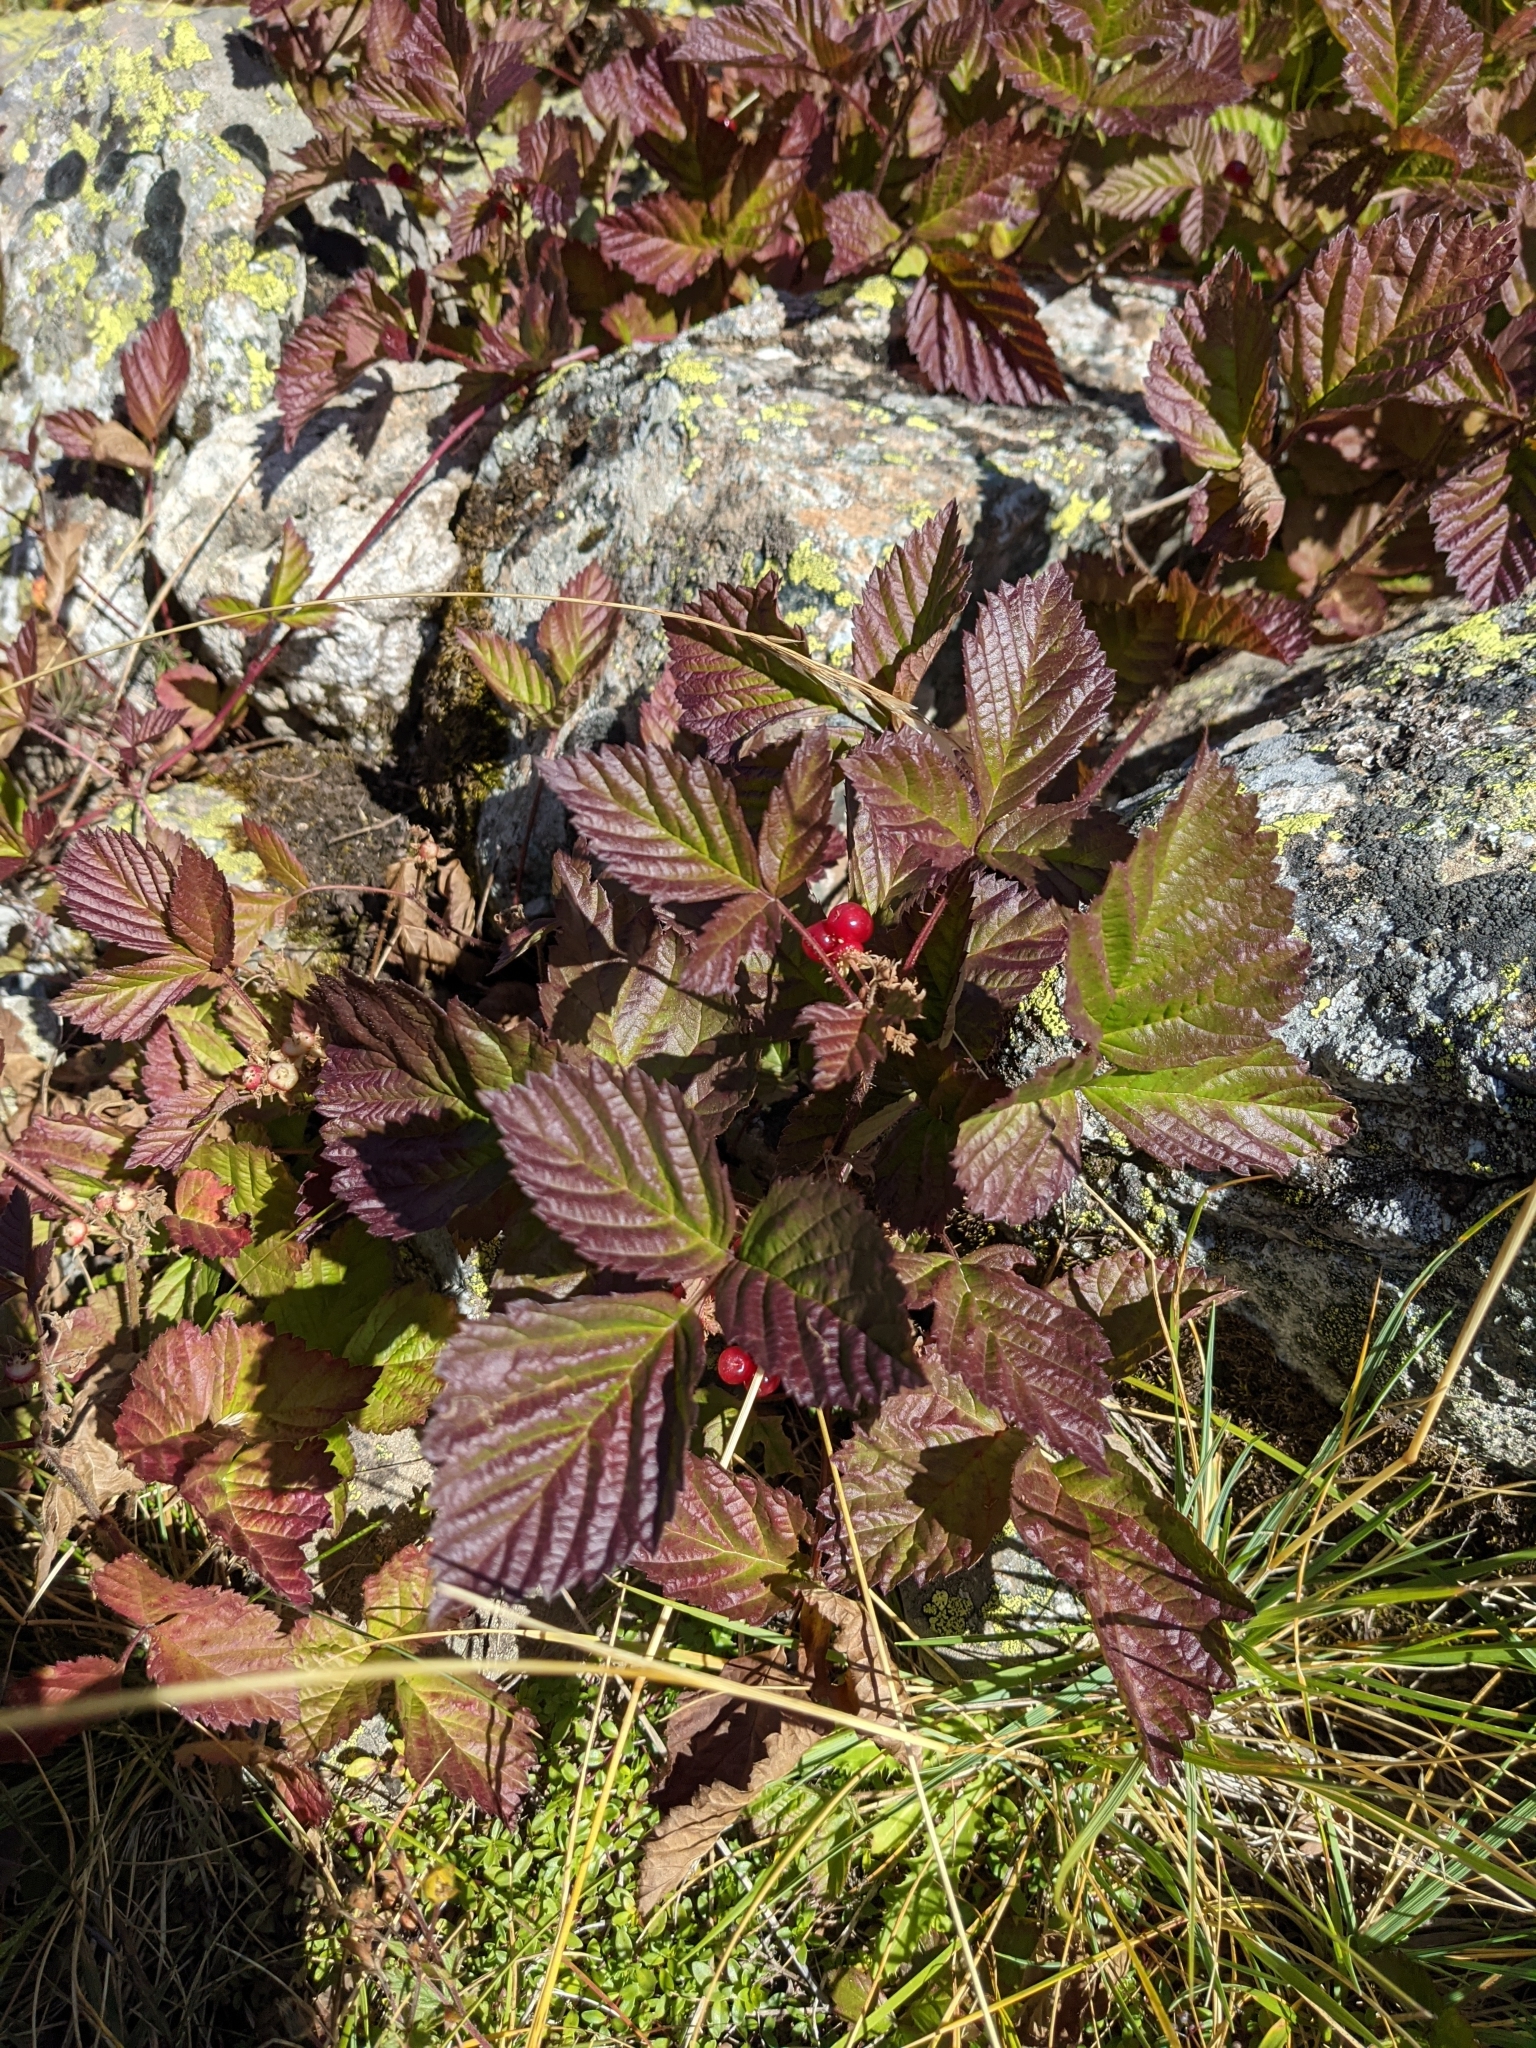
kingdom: Plantae
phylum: Tracheophyta
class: Magnoliopsida
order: Rosales
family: Rosaceae
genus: Rubus
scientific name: Rubus saxatilis
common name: Stone bramble
